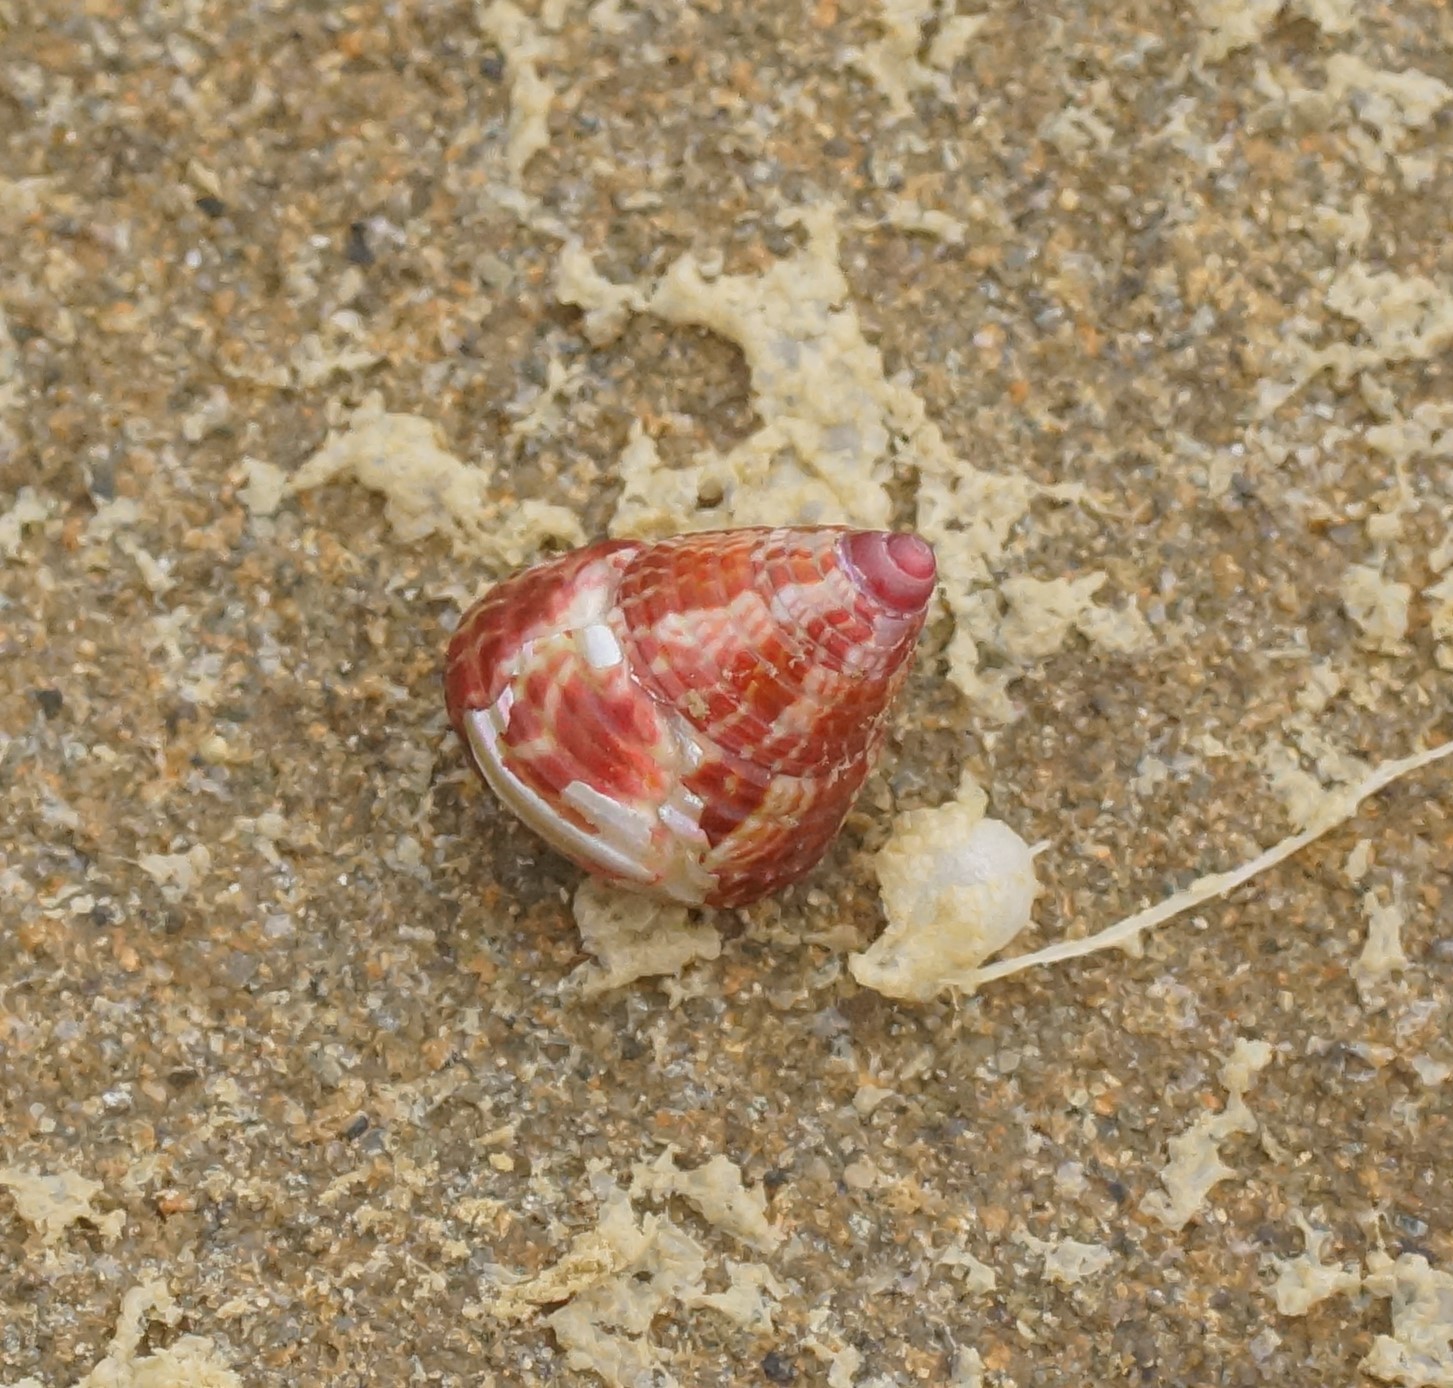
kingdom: Animalia
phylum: Mollusca
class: Gastropoda
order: Trochida
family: Trochidae
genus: Prothalotia
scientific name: Prothalotia pulcherrima
